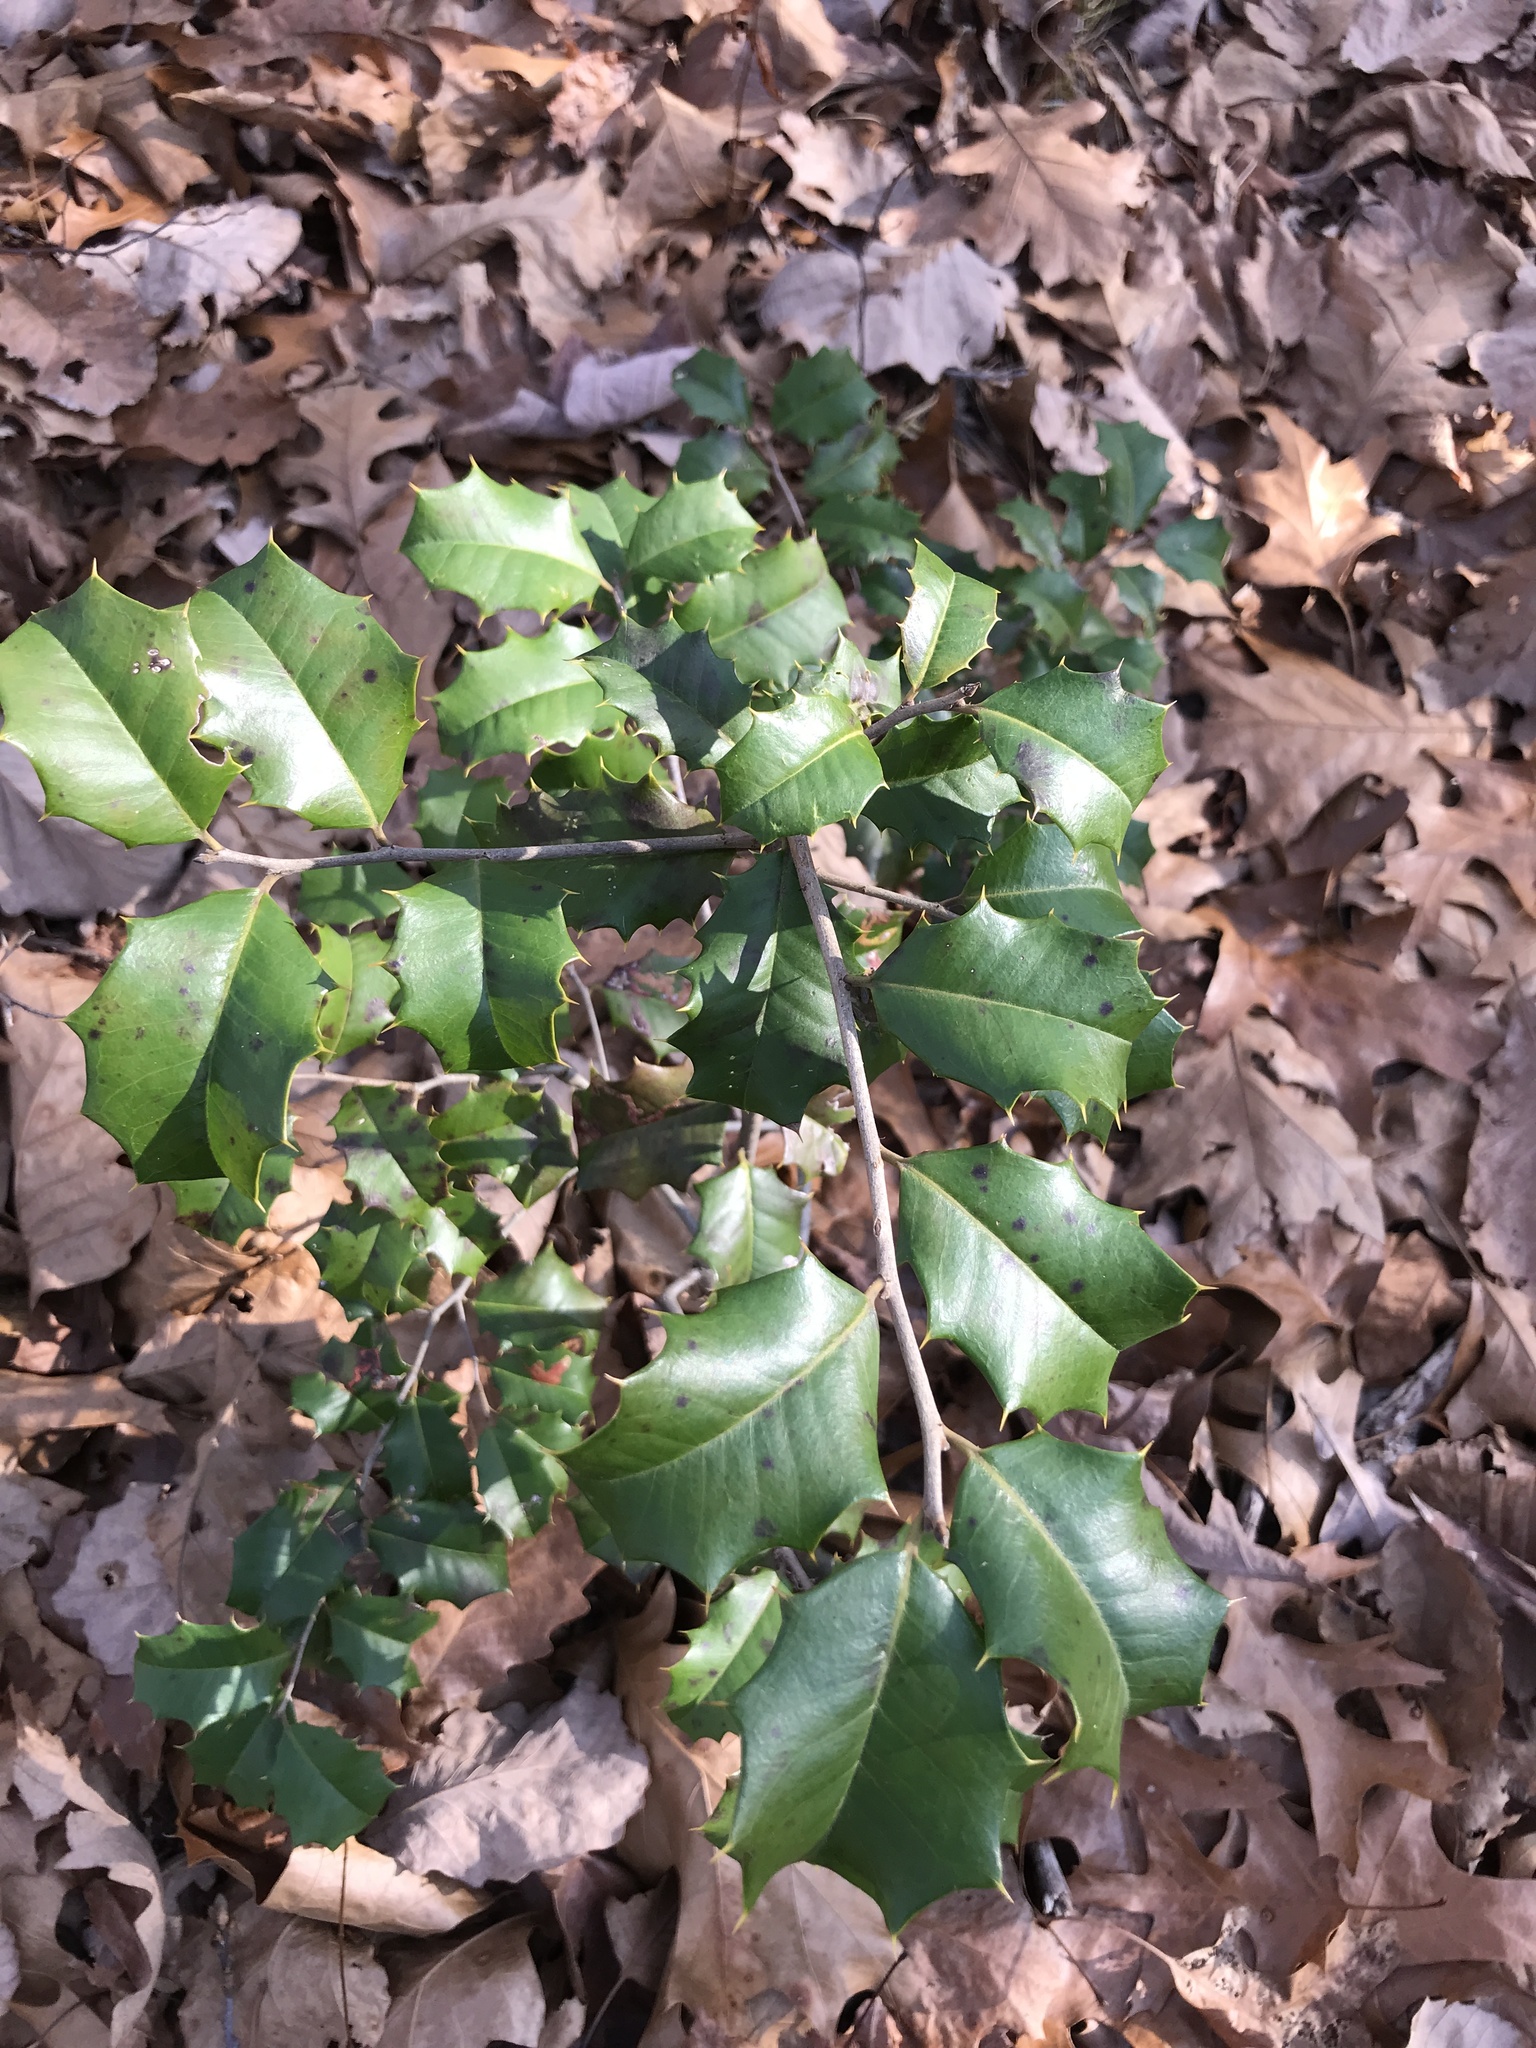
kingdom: Plantae
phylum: Tracheophyta
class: Magnoliopsida
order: Aquifoliales
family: Aquifoliaceae
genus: Ilex
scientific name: Ilex opaca
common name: American holly
